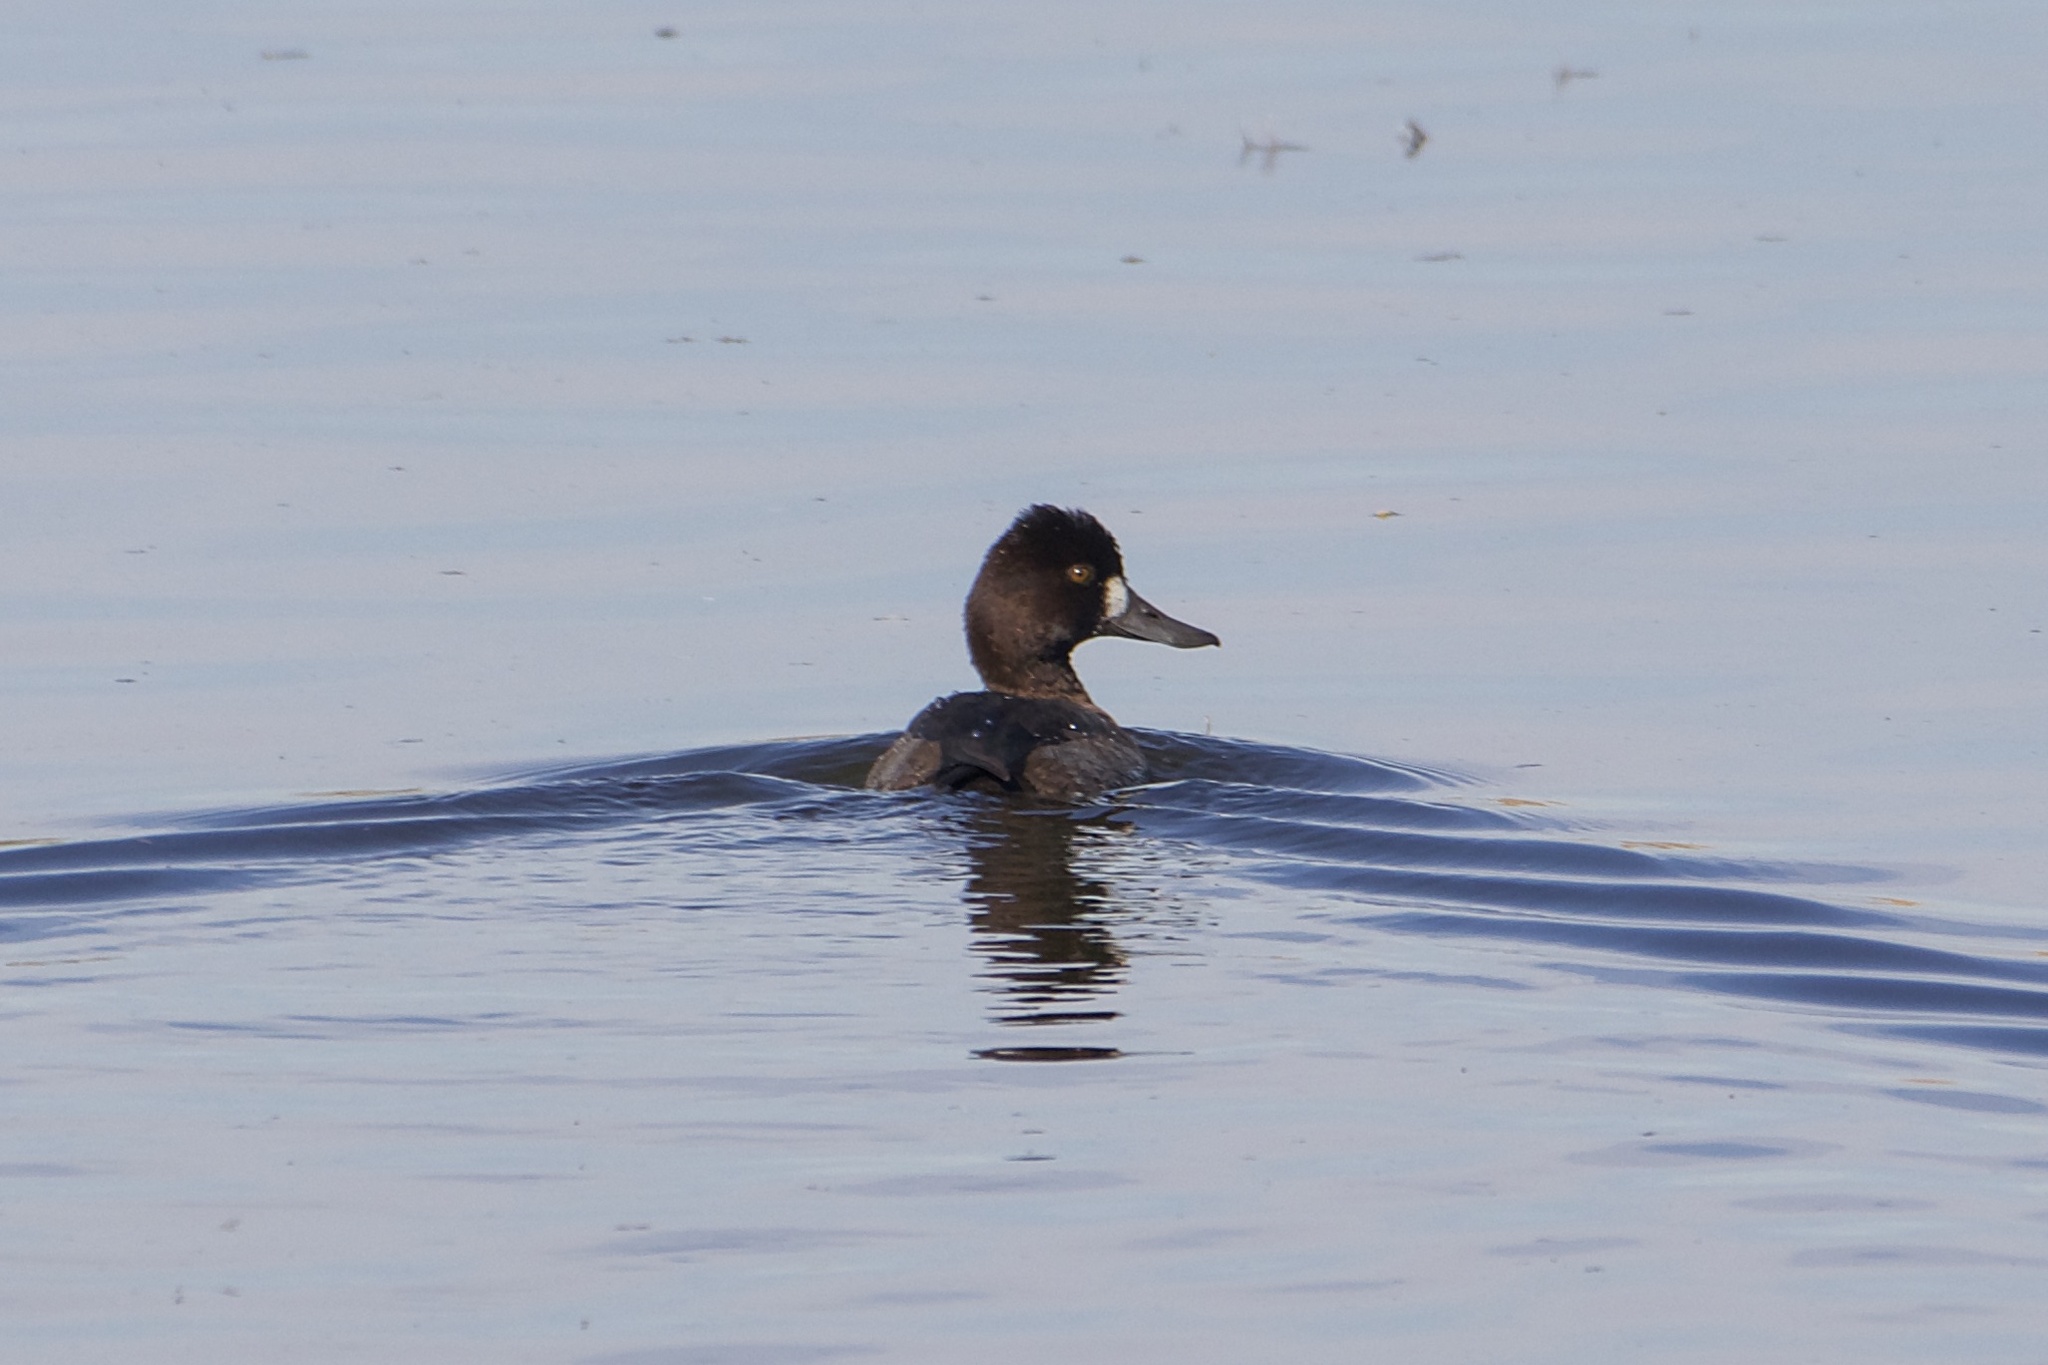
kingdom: Animalia
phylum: Chordata
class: Aves
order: Anseriformes
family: Anatidae
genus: Aythya
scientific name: Aythya affinis
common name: Lesser scaup
